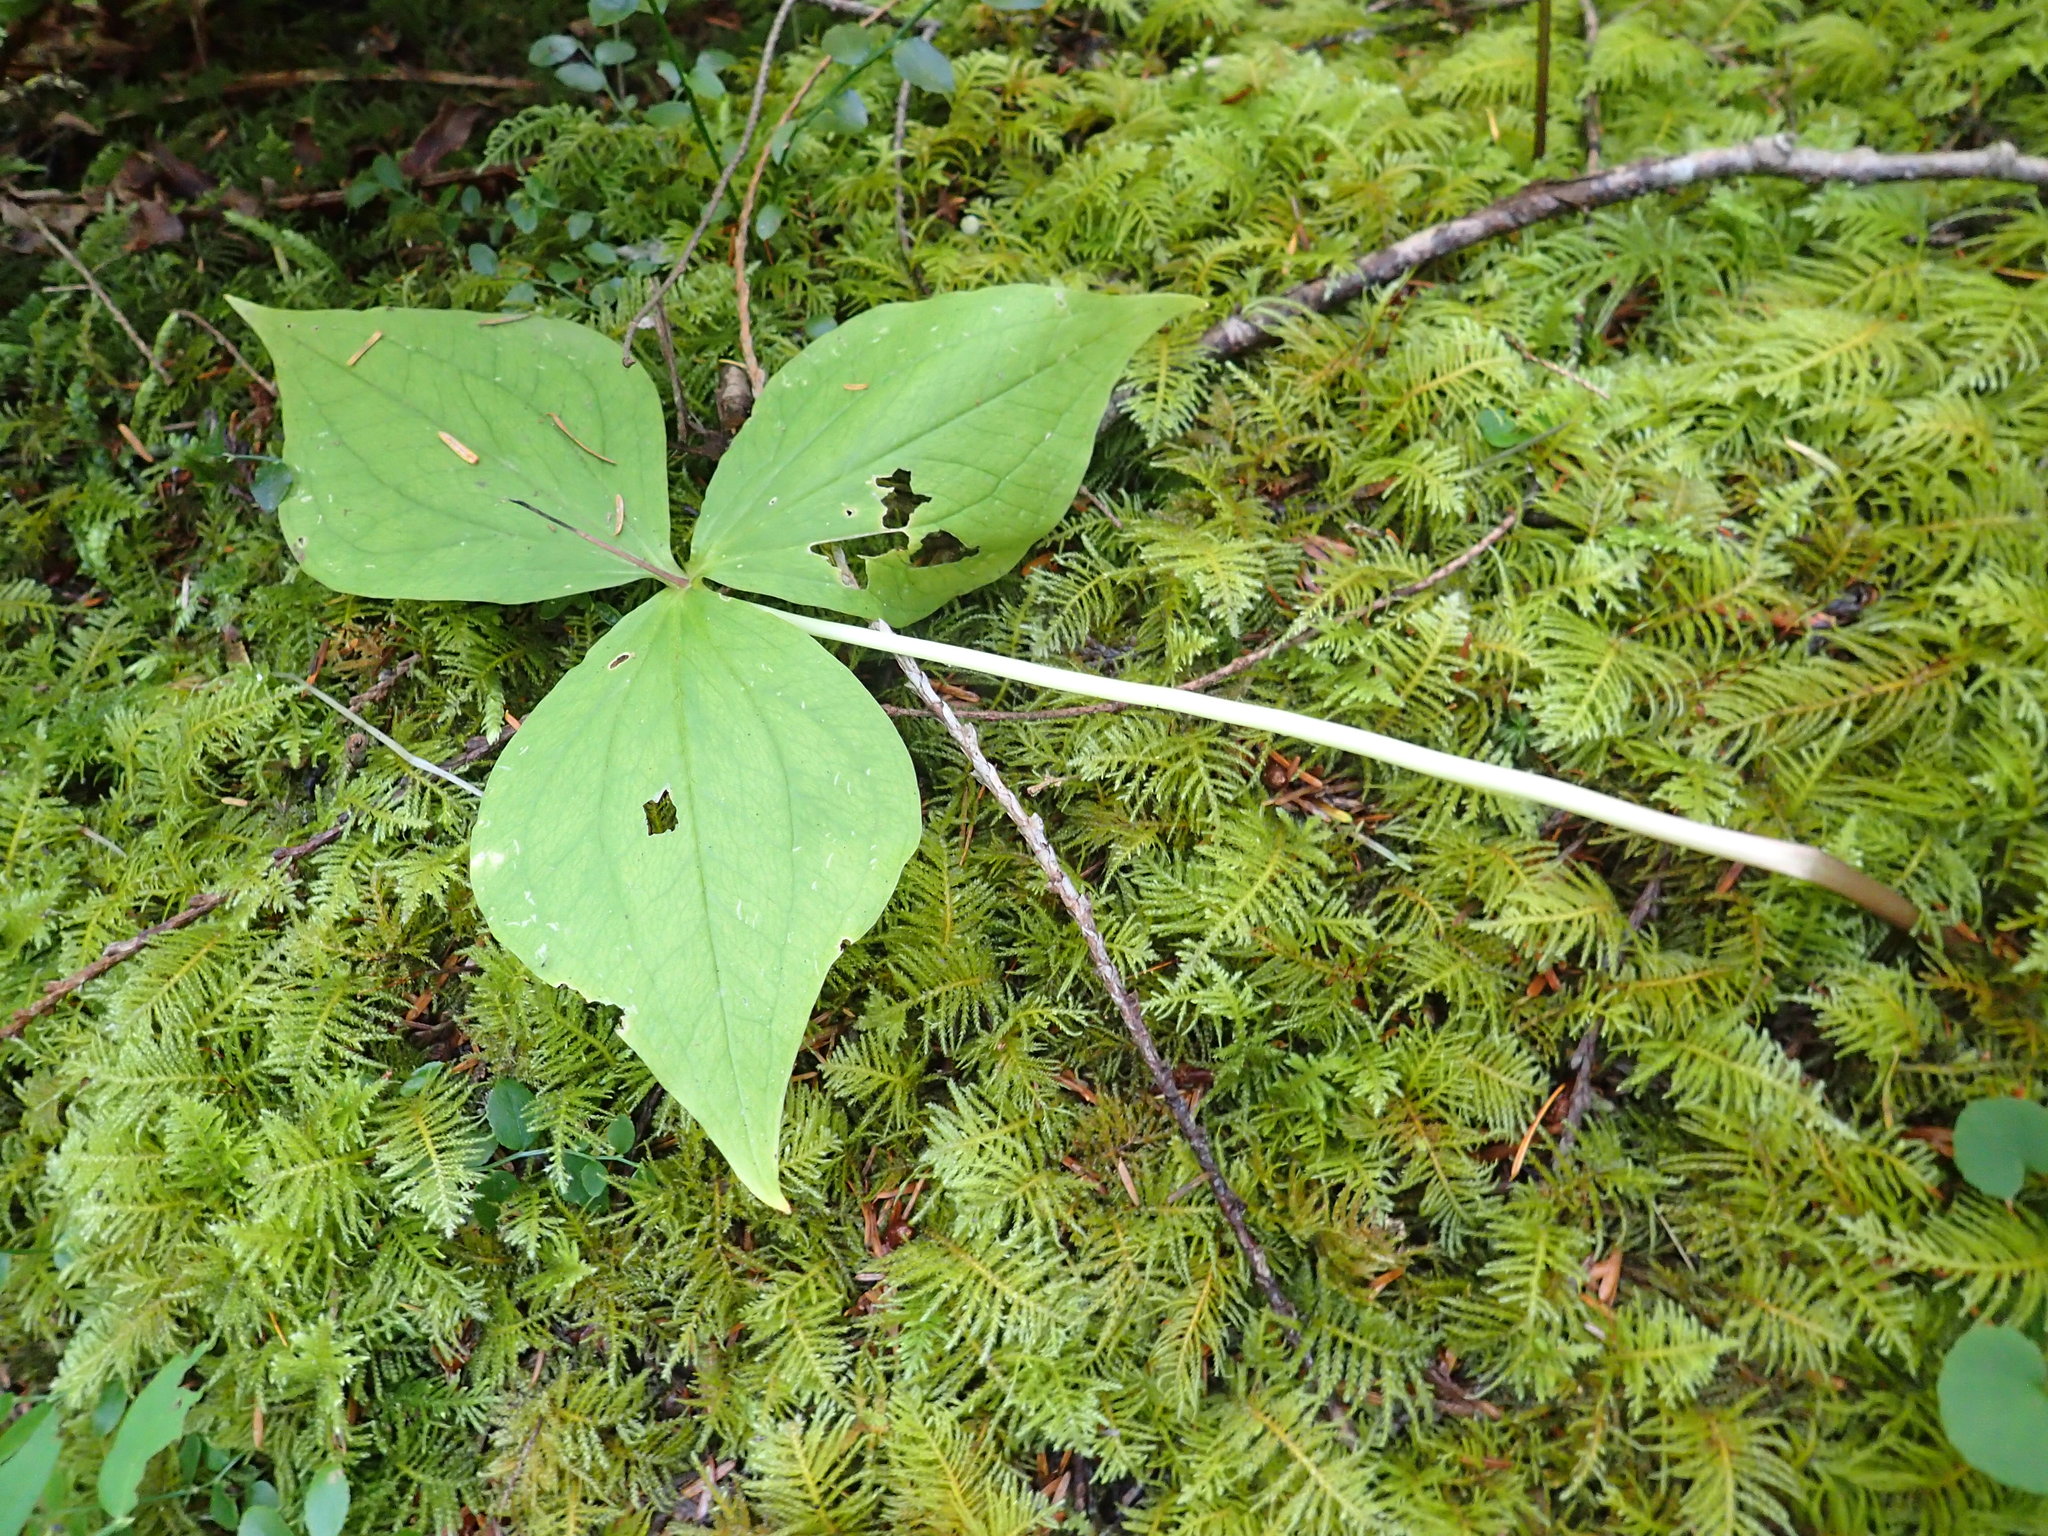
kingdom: Plantae
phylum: Tracheophyta
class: Liliopsida
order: Liliales
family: Melanthiaceae
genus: Trillium
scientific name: Trillium ovatum
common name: Pacific trillium
